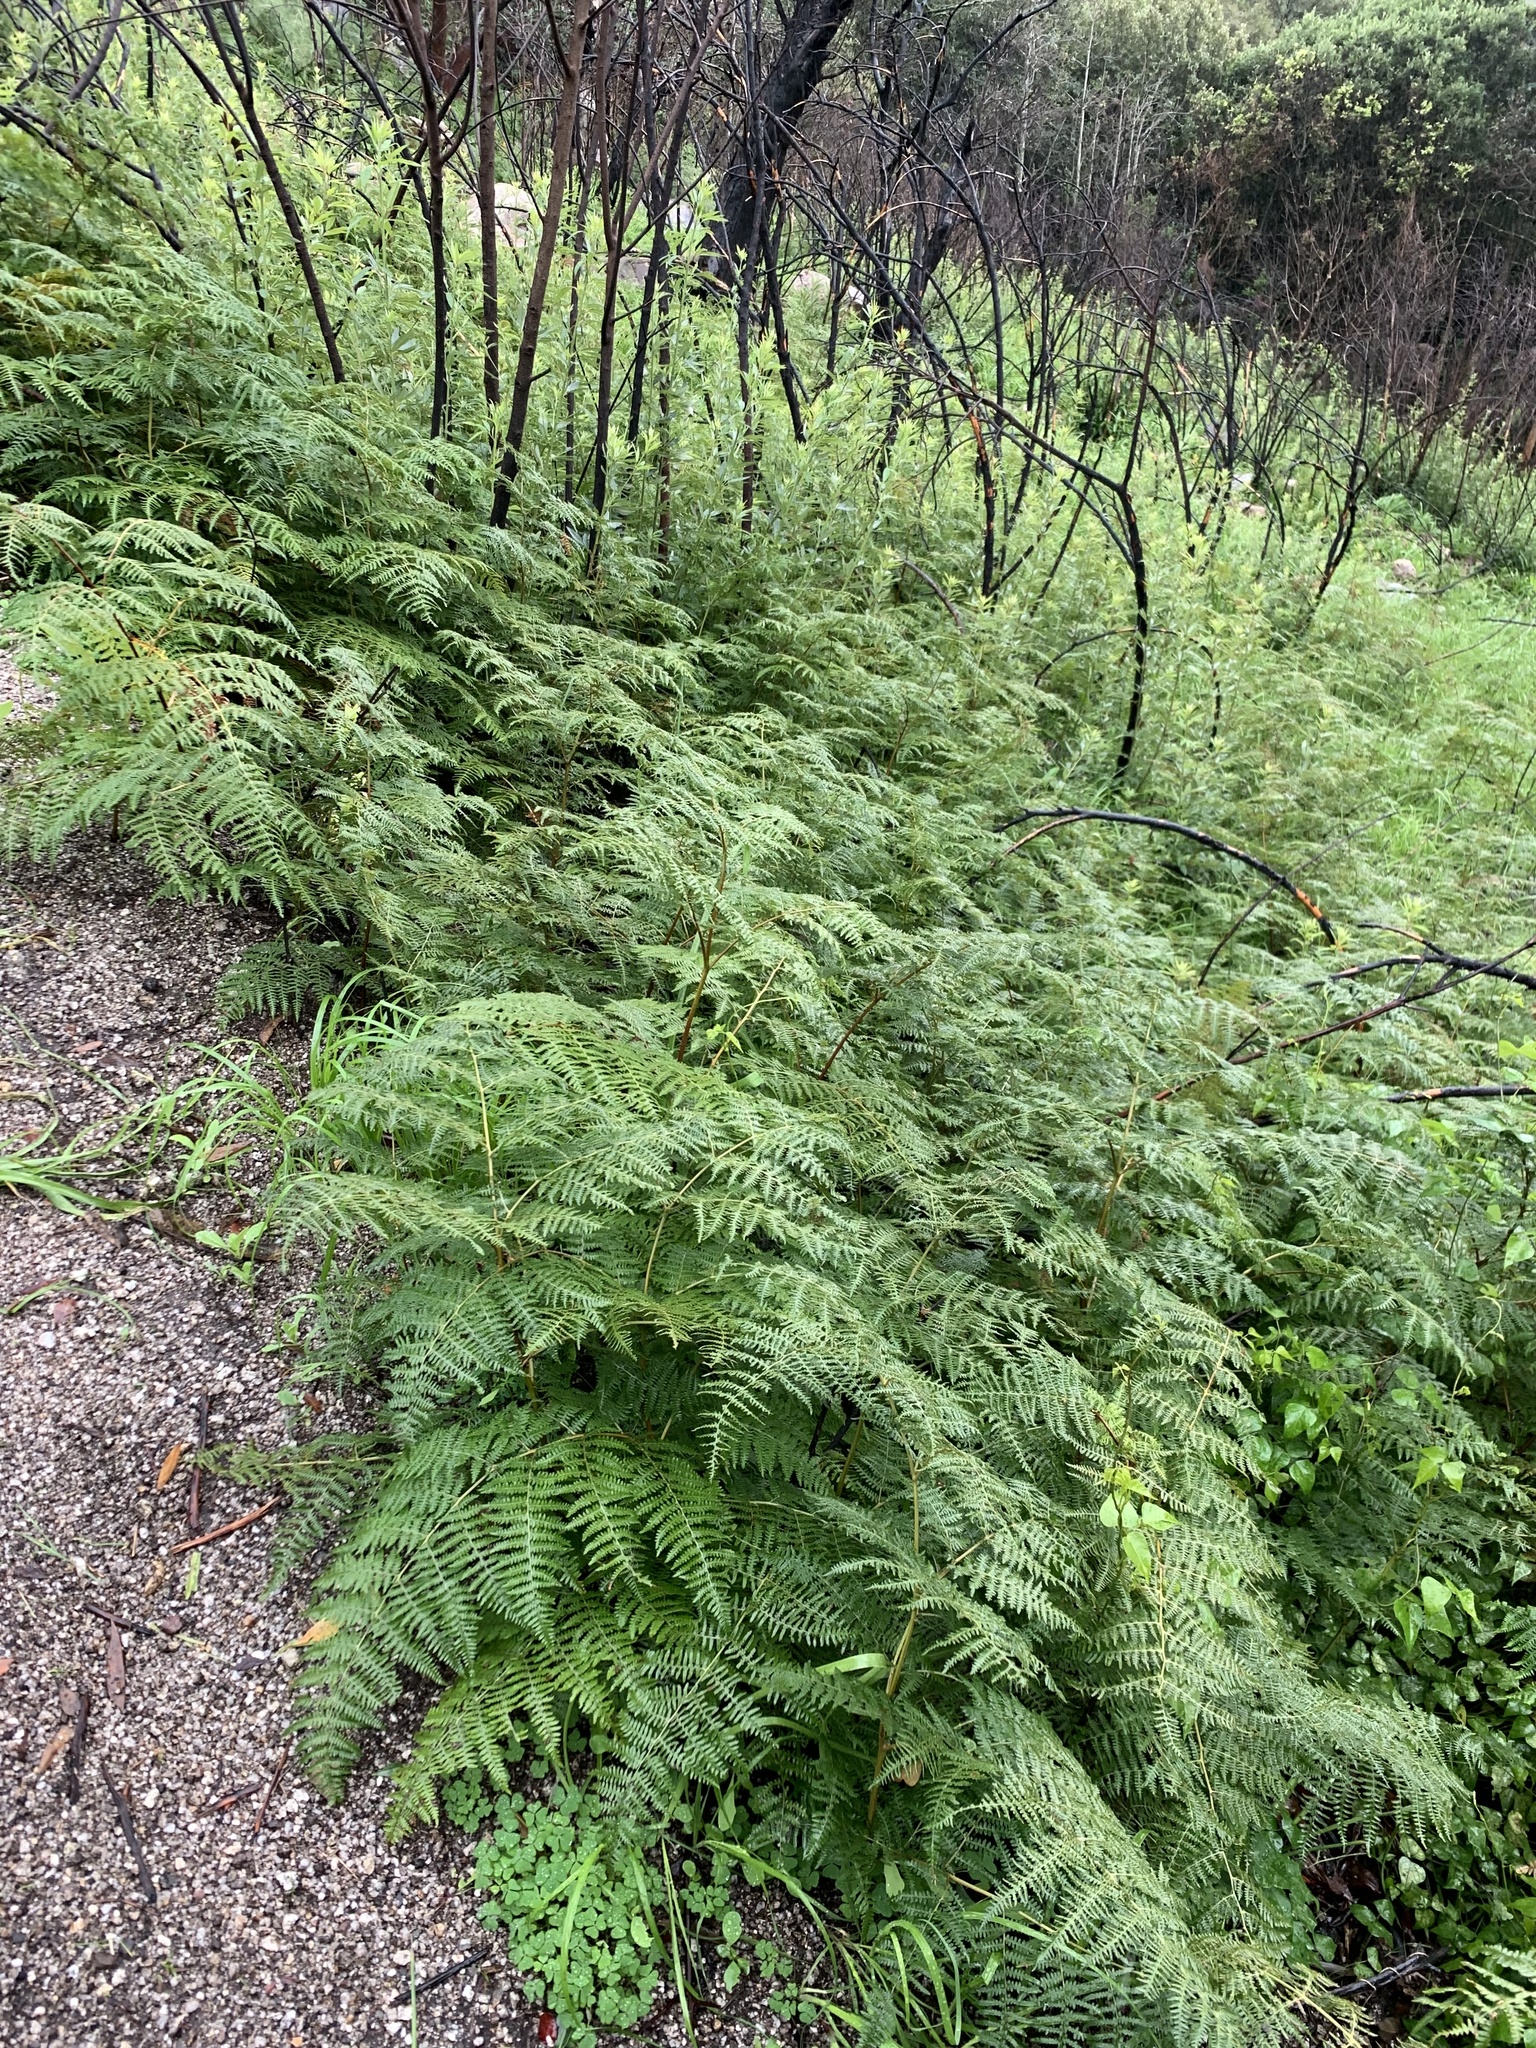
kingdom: Plantae
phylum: Tracheophyta
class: Polypodiopsida
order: Polypodiales
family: Dennstaedtiaceae
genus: Pteridium
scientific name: Pteridium aquilinum
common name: Bracken
